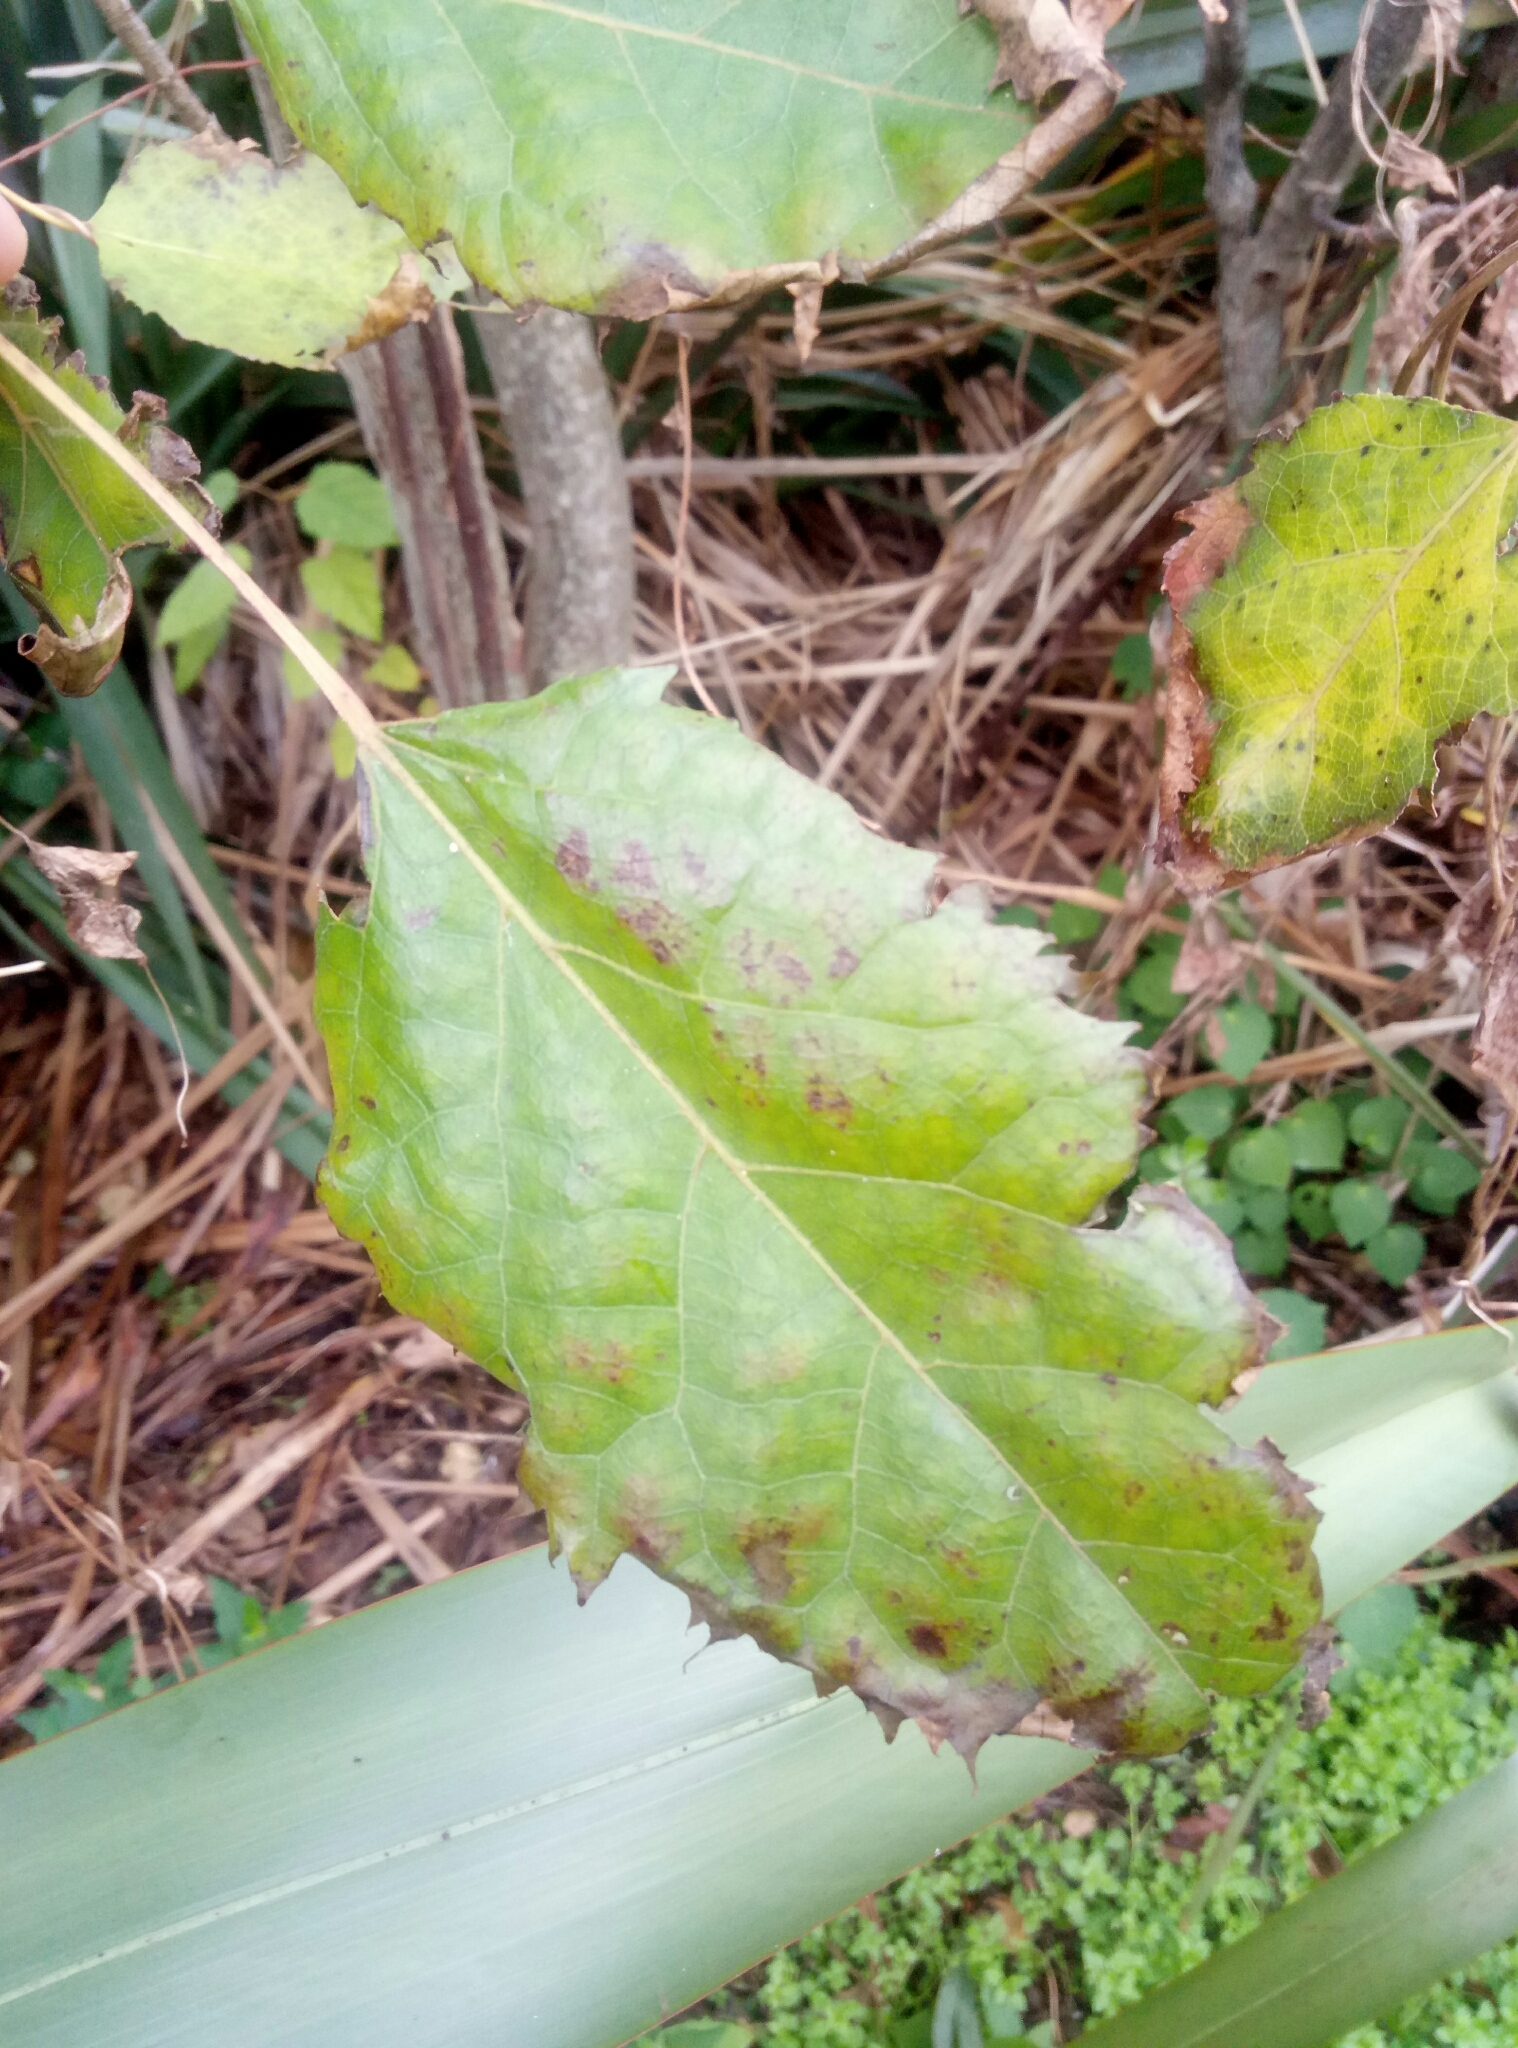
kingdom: Plantae
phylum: Tracheophyta
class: Magnoliopsida
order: Oxalidales
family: Elaeocarpaceae
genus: Aristotelia
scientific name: Aristotelia serrata
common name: New zealand wineberry
